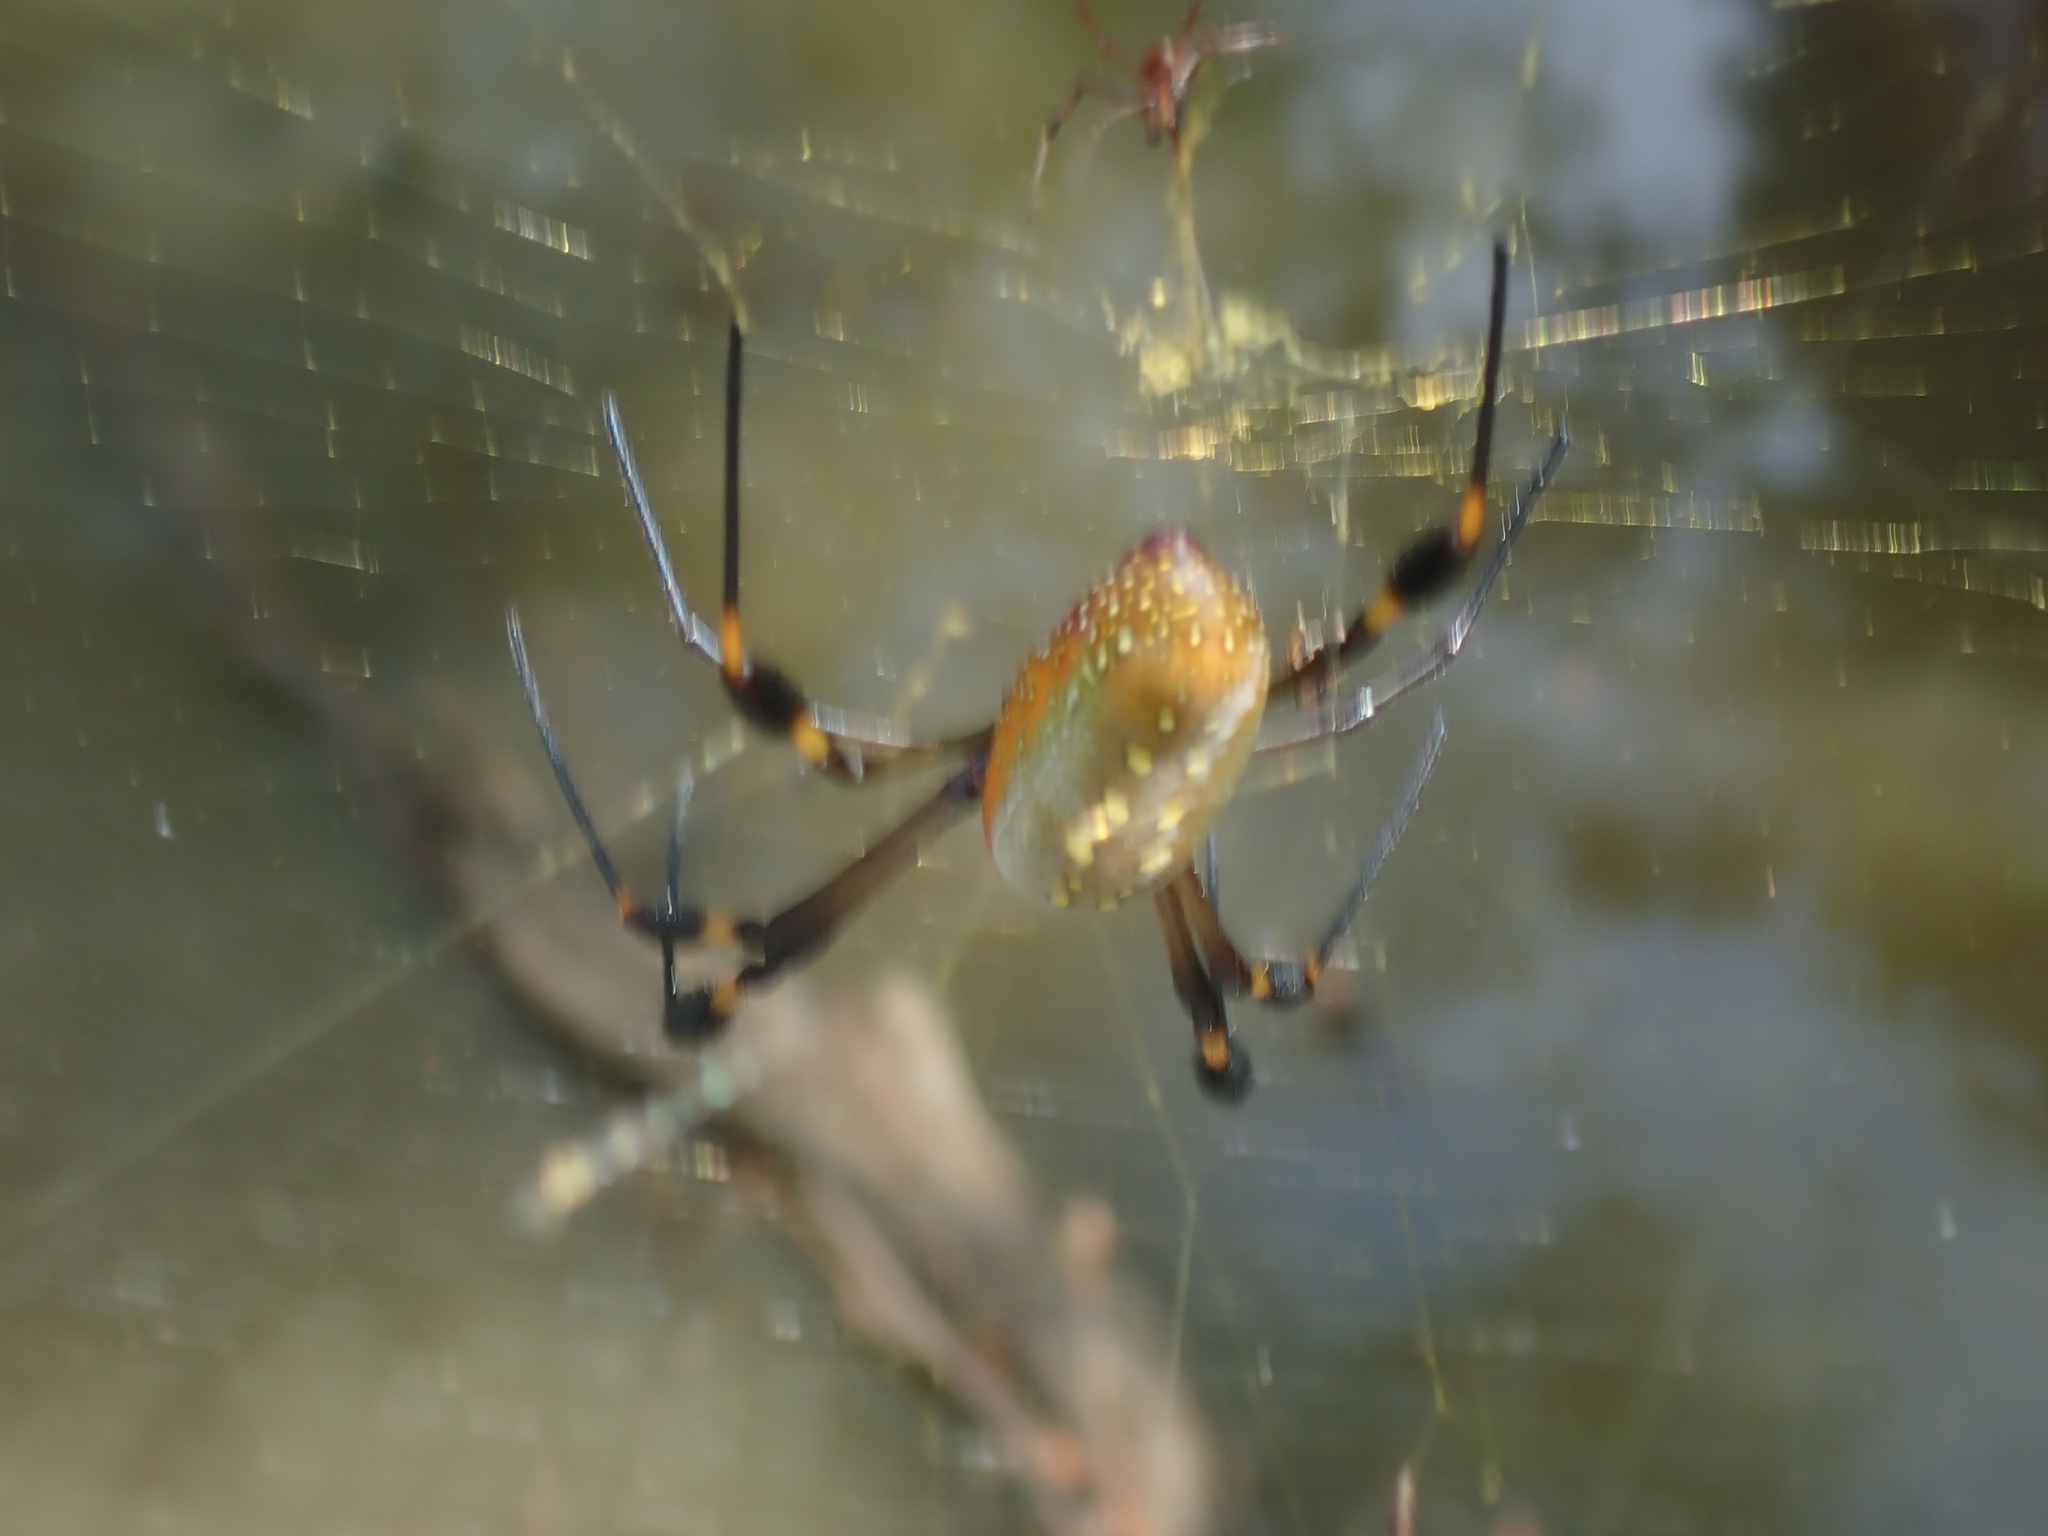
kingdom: Animalia
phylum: Arthropoda
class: Arachnida
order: Araneae
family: Araneidae
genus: Trichonephila
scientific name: Trichonephila clavipes
